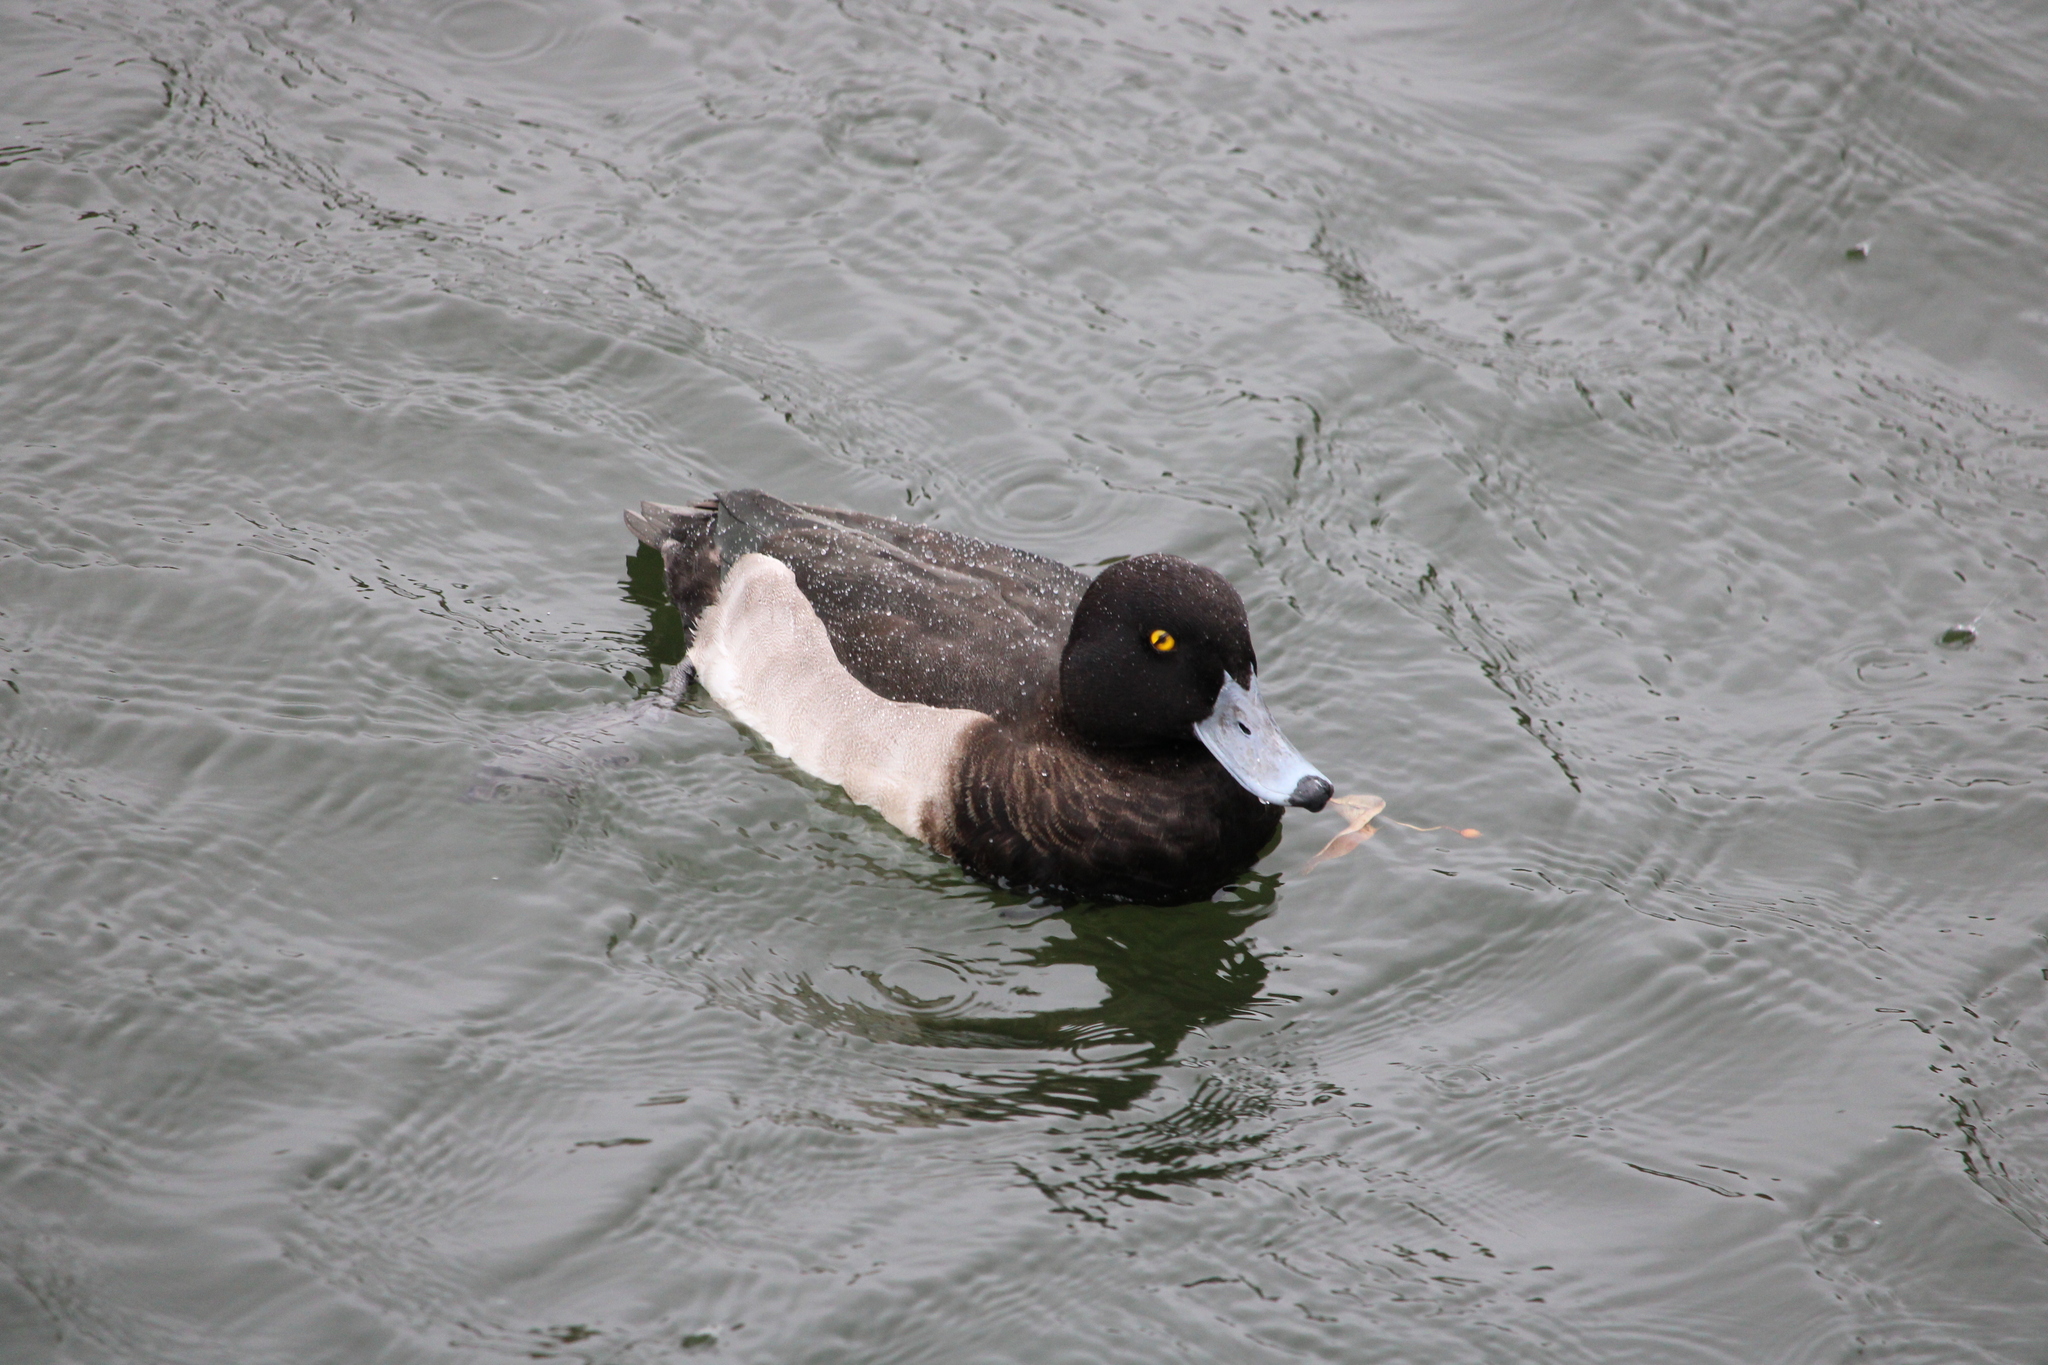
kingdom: Animalia
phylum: Chordata
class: Aves
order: Anseriformes
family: Anatidae
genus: Aythya
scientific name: Aythya fuligula
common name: Tufted duck
